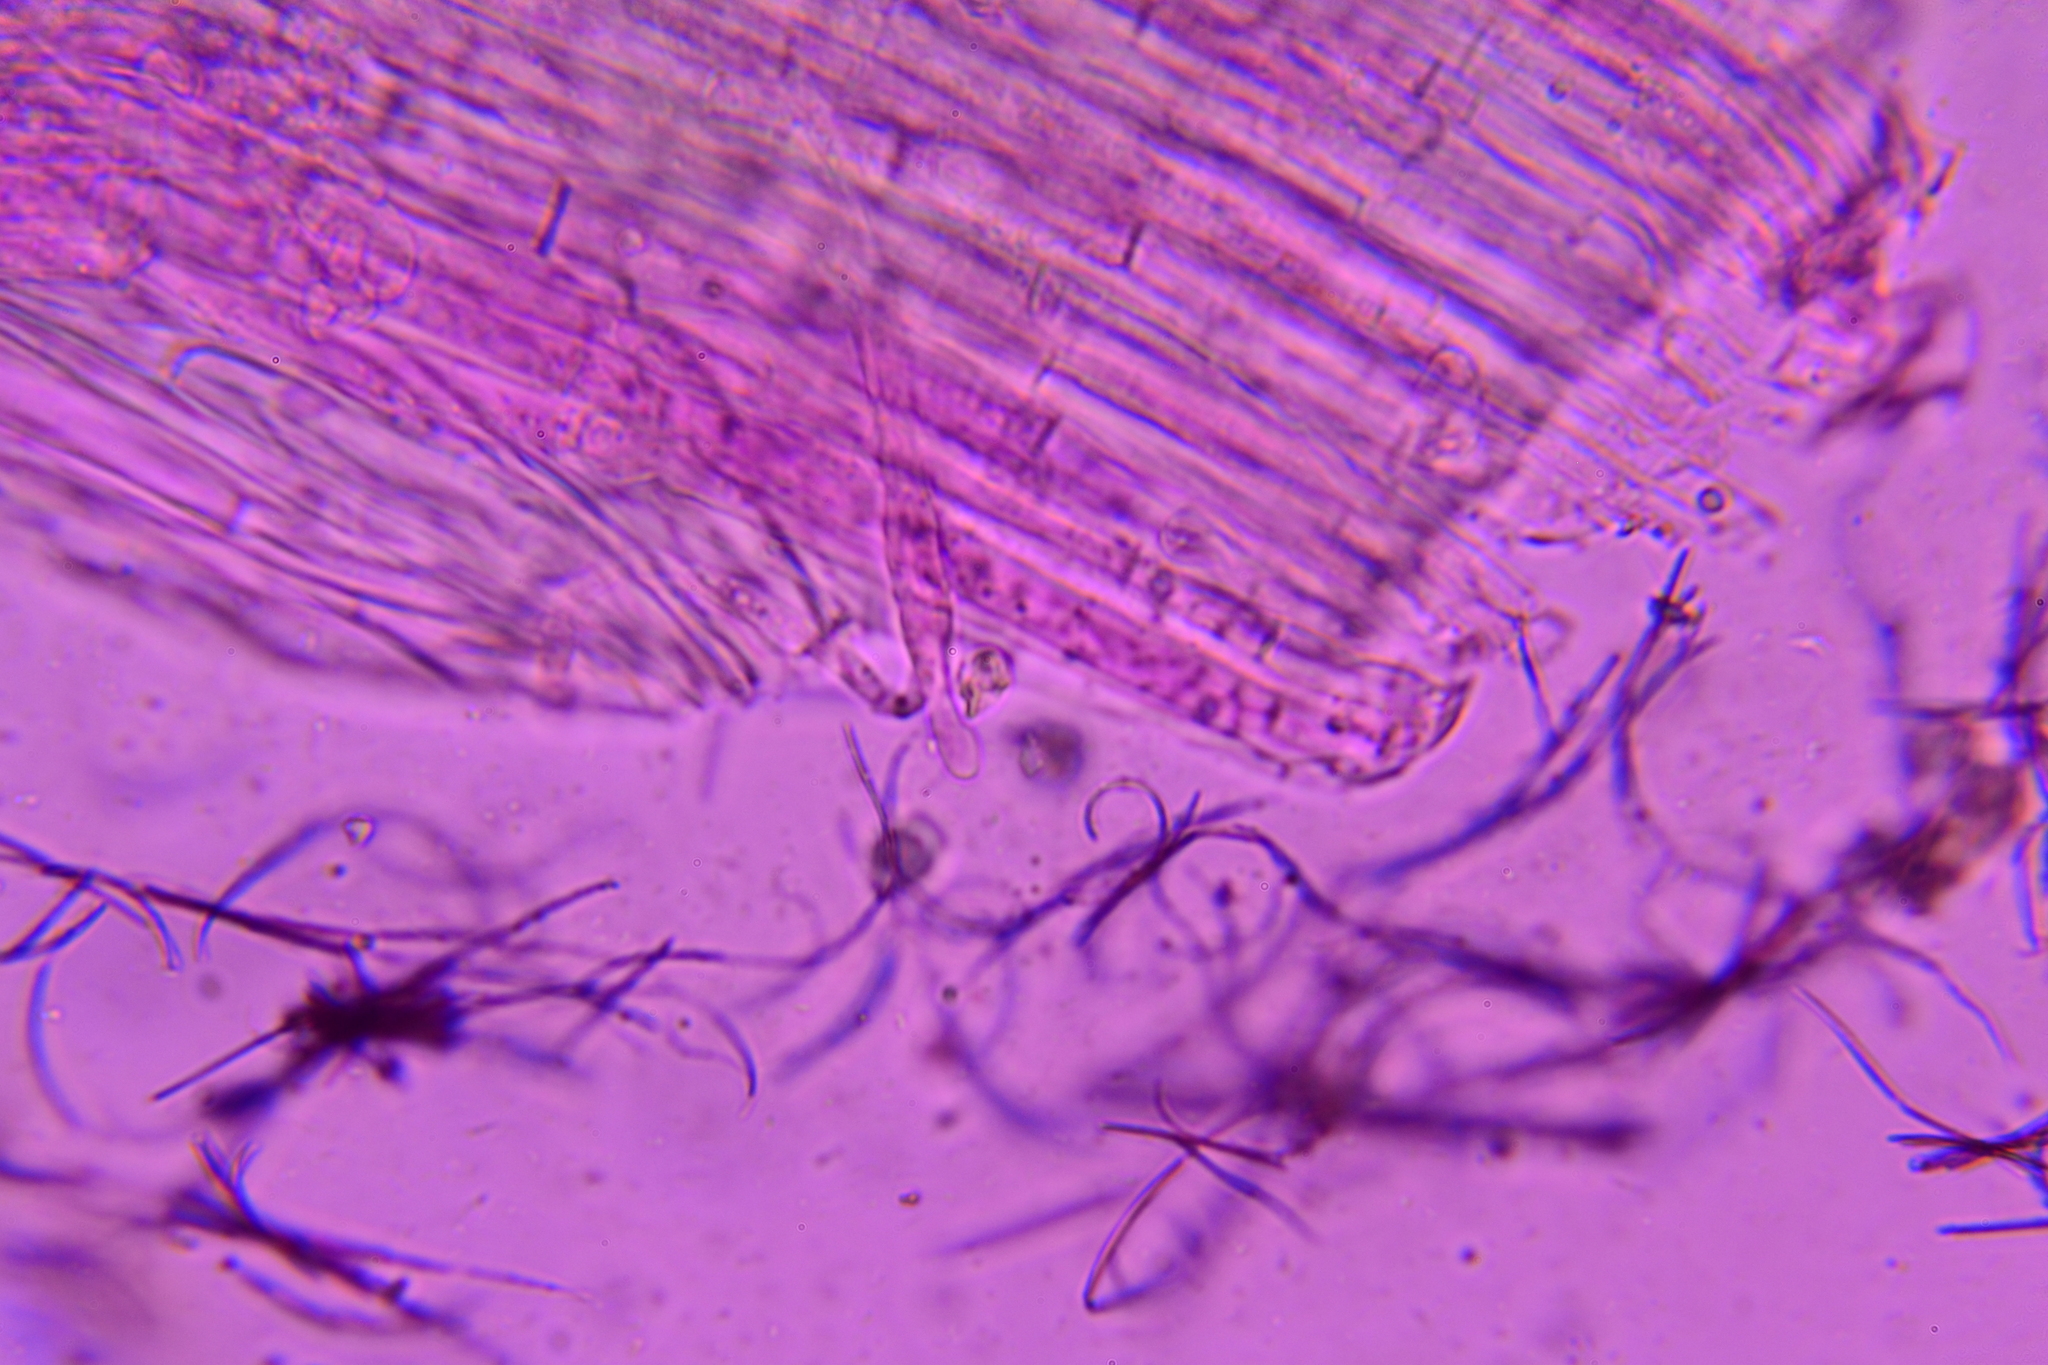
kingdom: Fungi
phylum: Basidiomycota
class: Agaricomycetes
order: Agaricales
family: Entolomataceae
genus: Entoloma
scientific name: Entoloma formosum
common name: Pretty pinkgill
